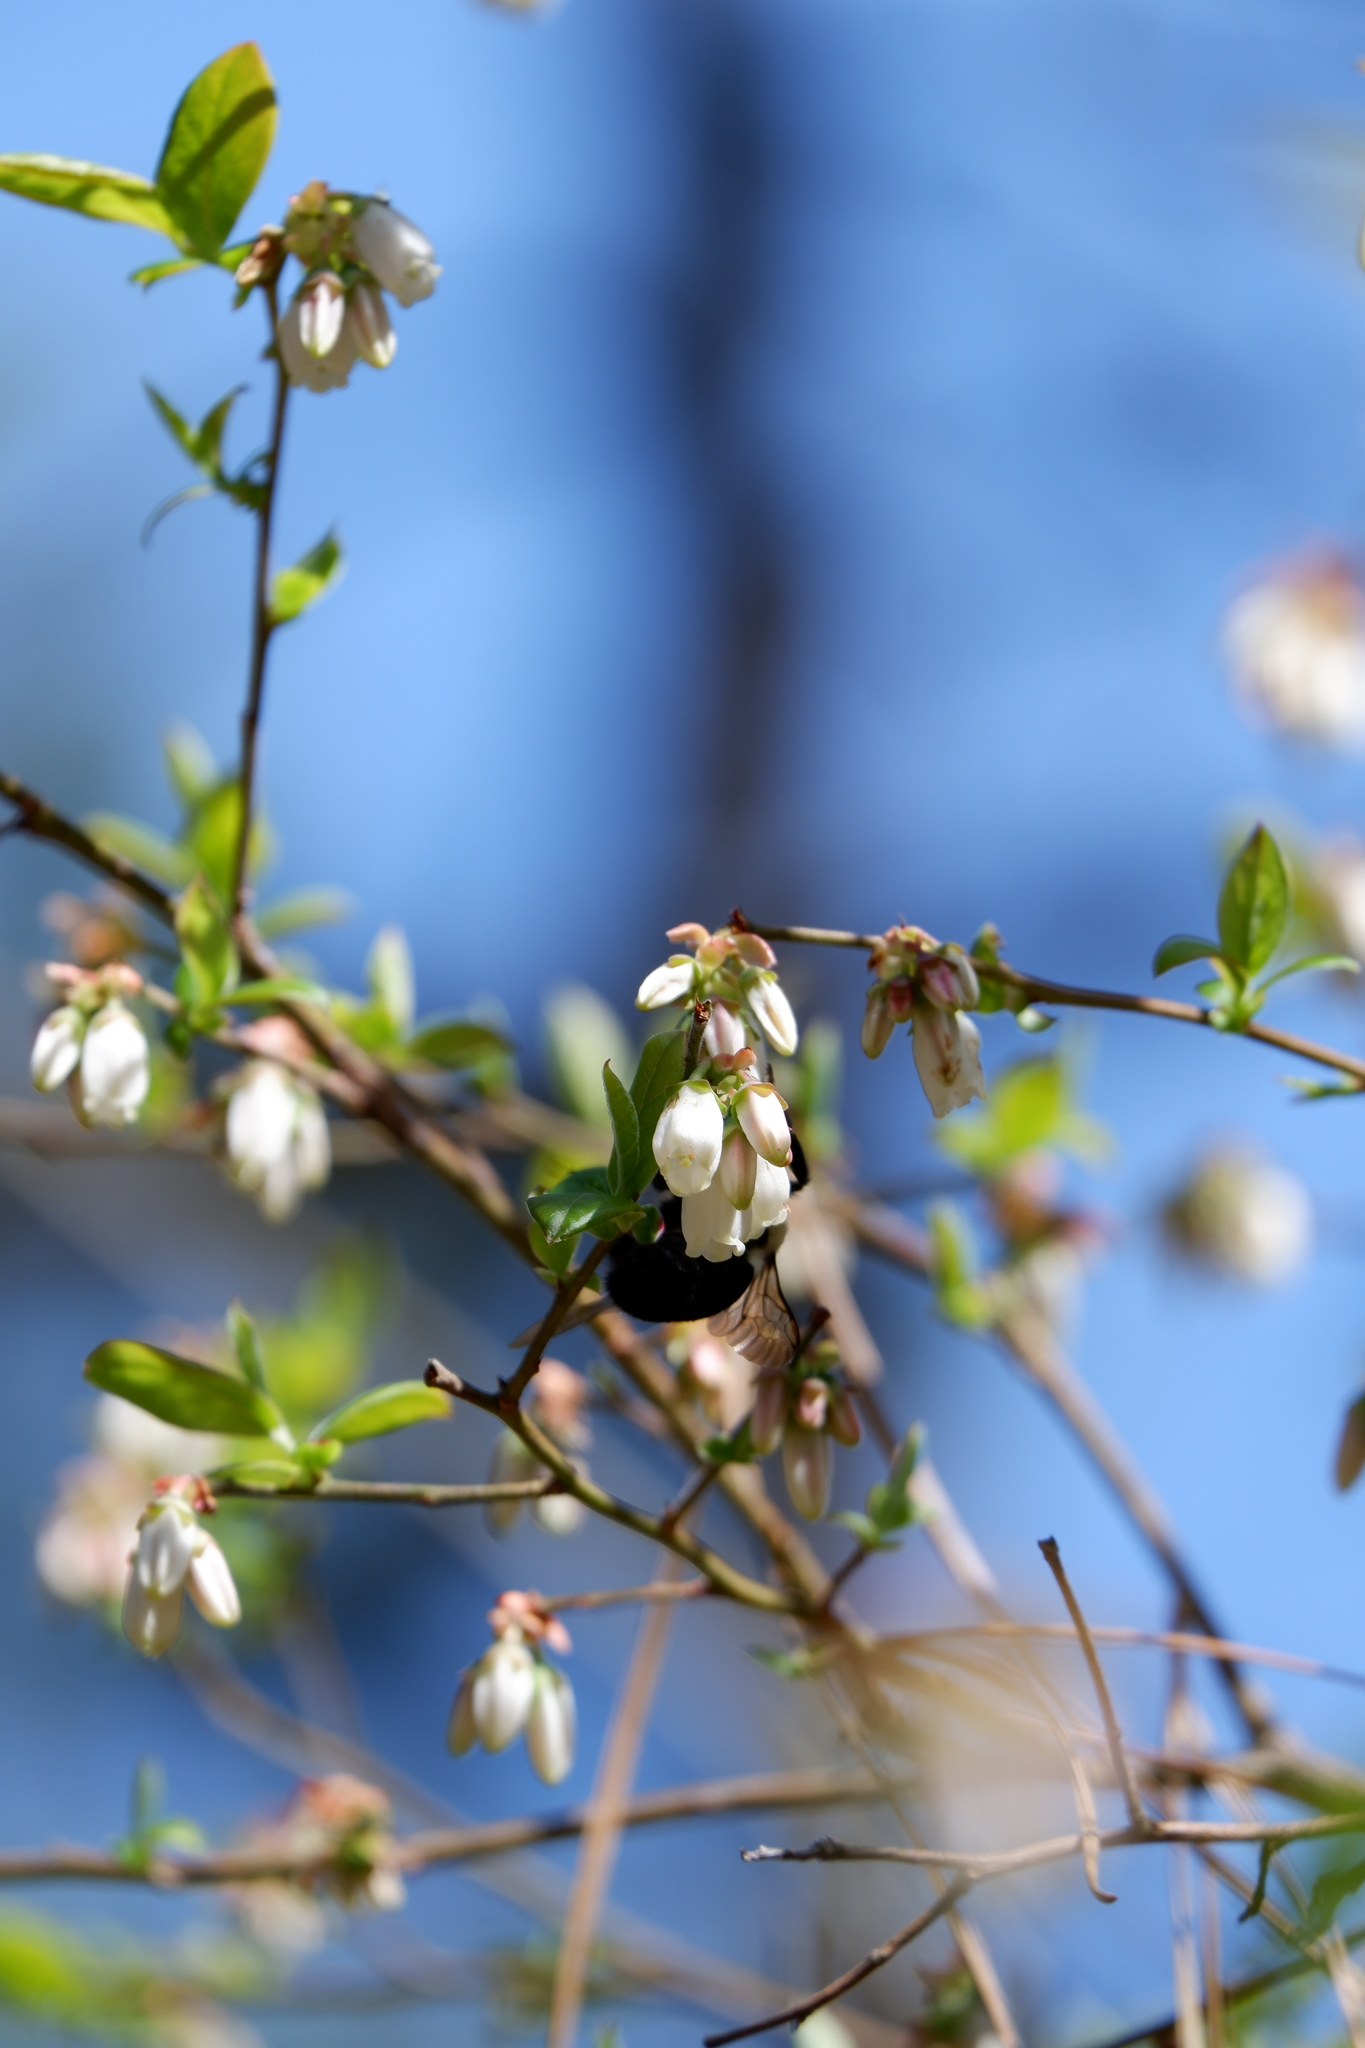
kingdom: Animalia
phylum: Arthropoda
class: Insecta
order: Hymenoptera
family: Apidae
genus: Bombus
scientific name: Bombus
